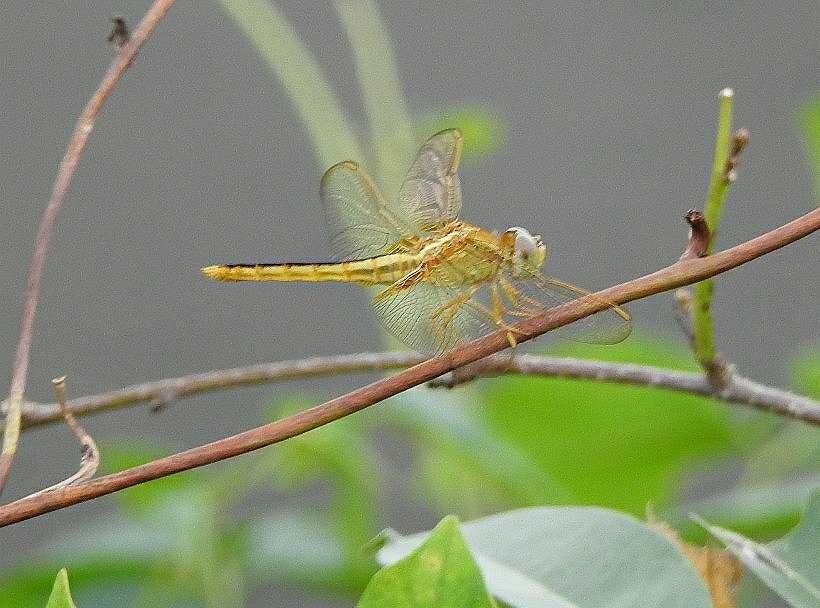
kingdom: Animalia
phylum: Arthropoda
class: Insecta
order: Odonata
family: Libellulidae
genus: Crocothemis
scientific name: Crocothemis servilia
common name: Scarlet skimmer
